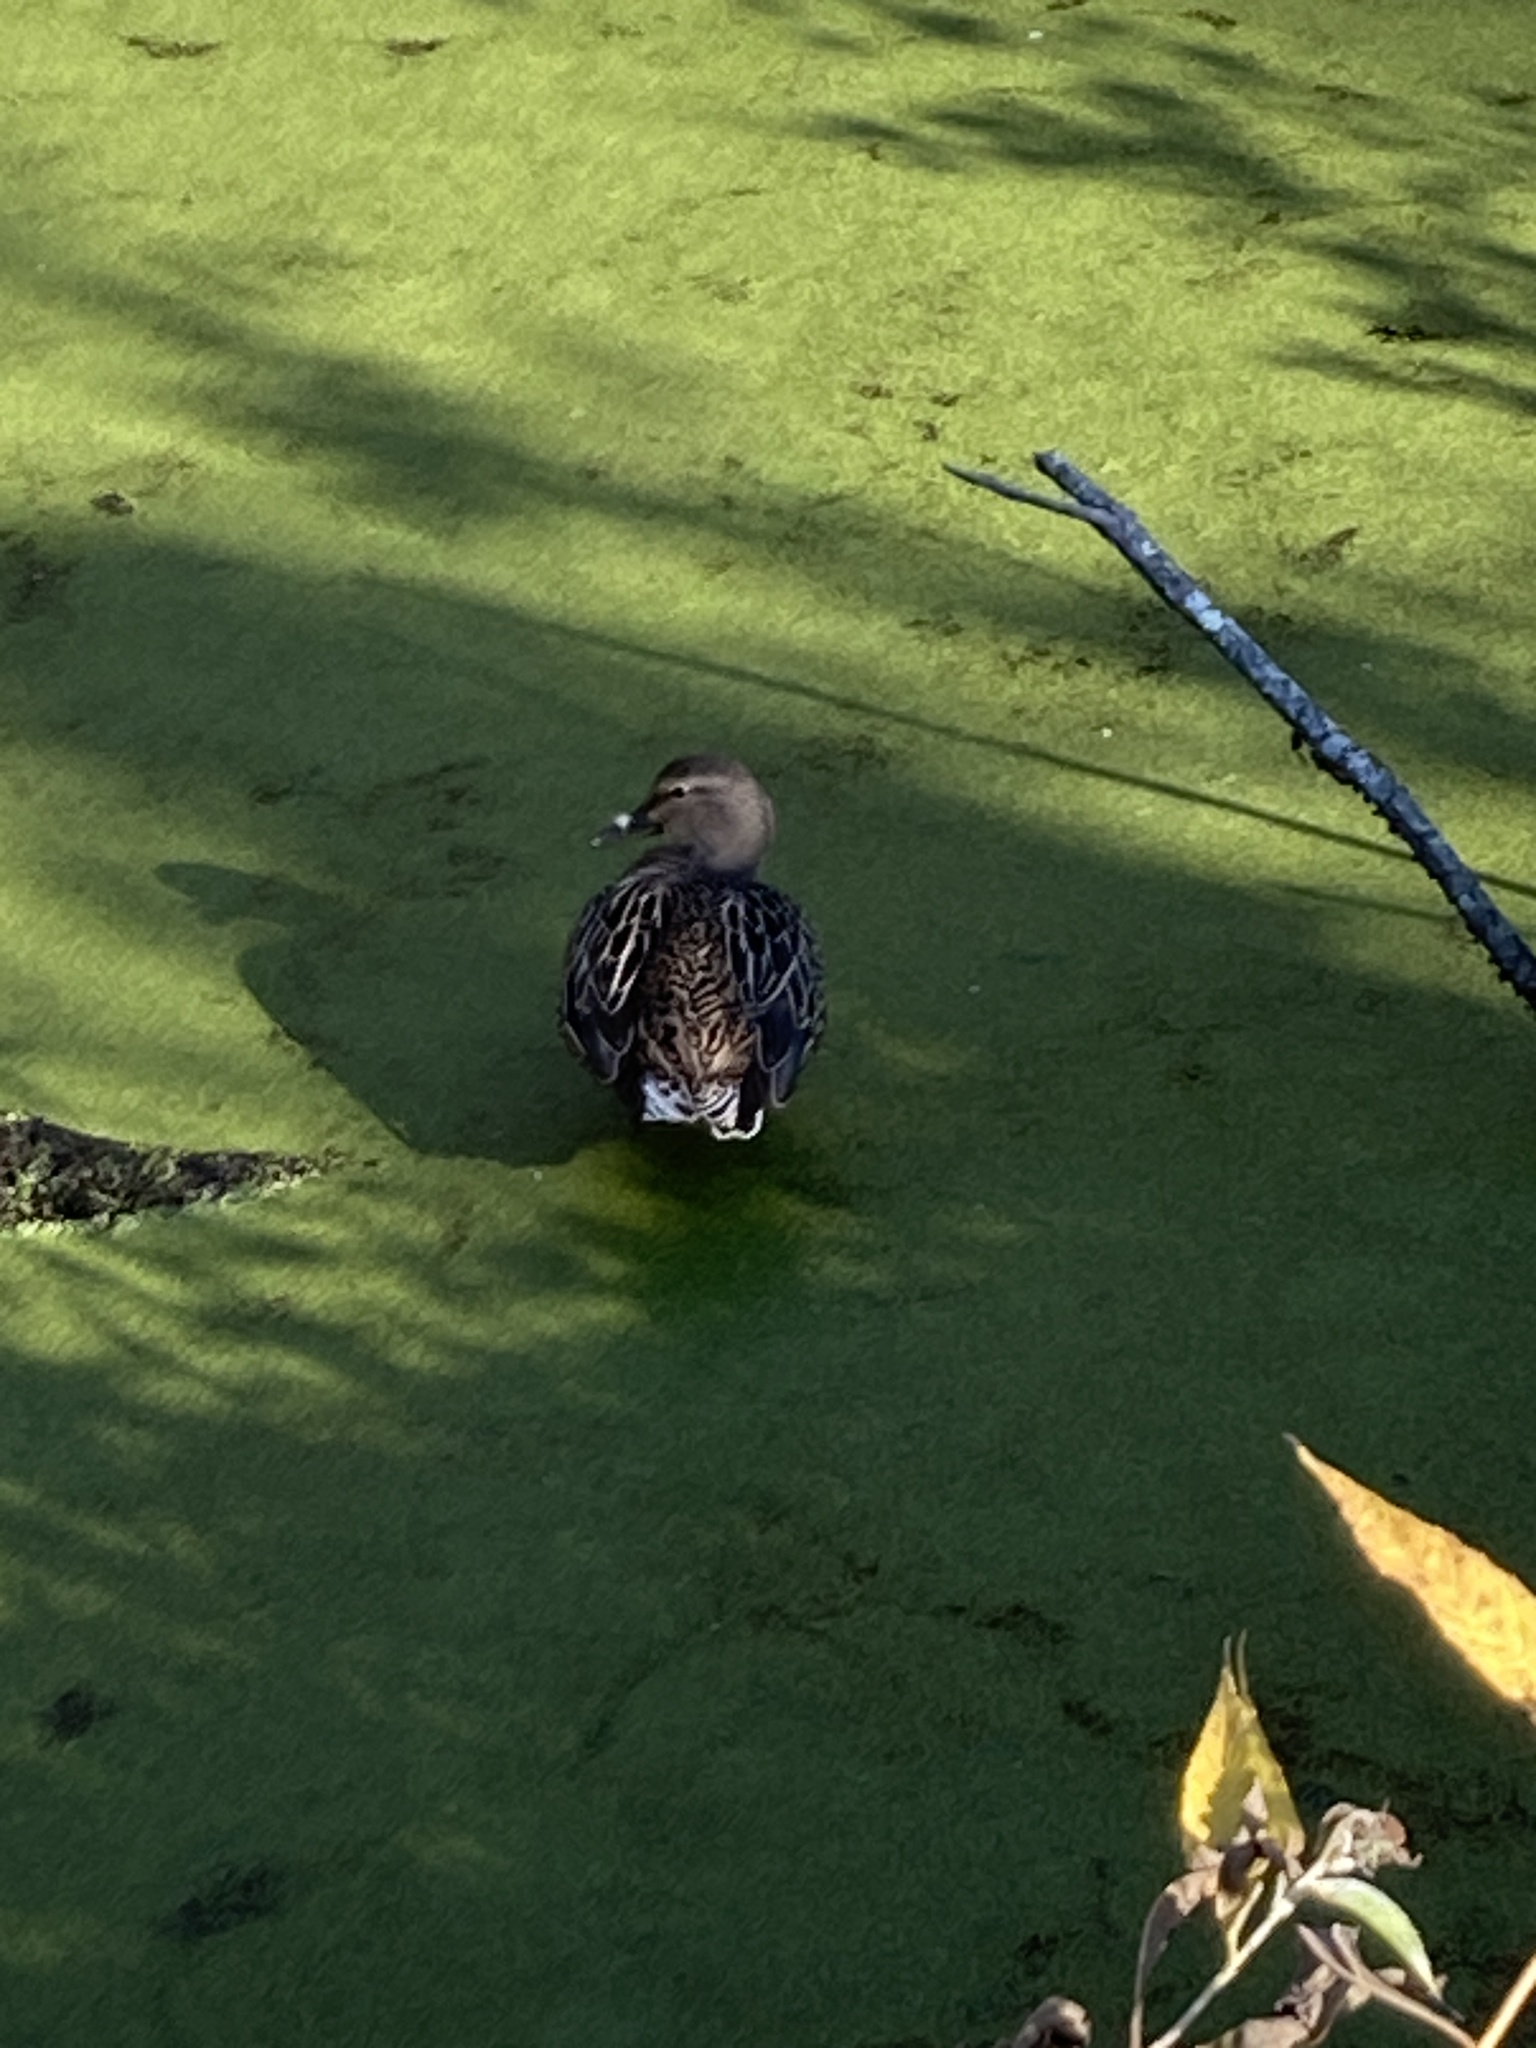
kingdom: Animalia
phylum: Chordata
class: Aves
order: Anseriformes
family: Anatidae
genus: Anas
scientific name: Anas platyrhynchos
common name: Mallard
